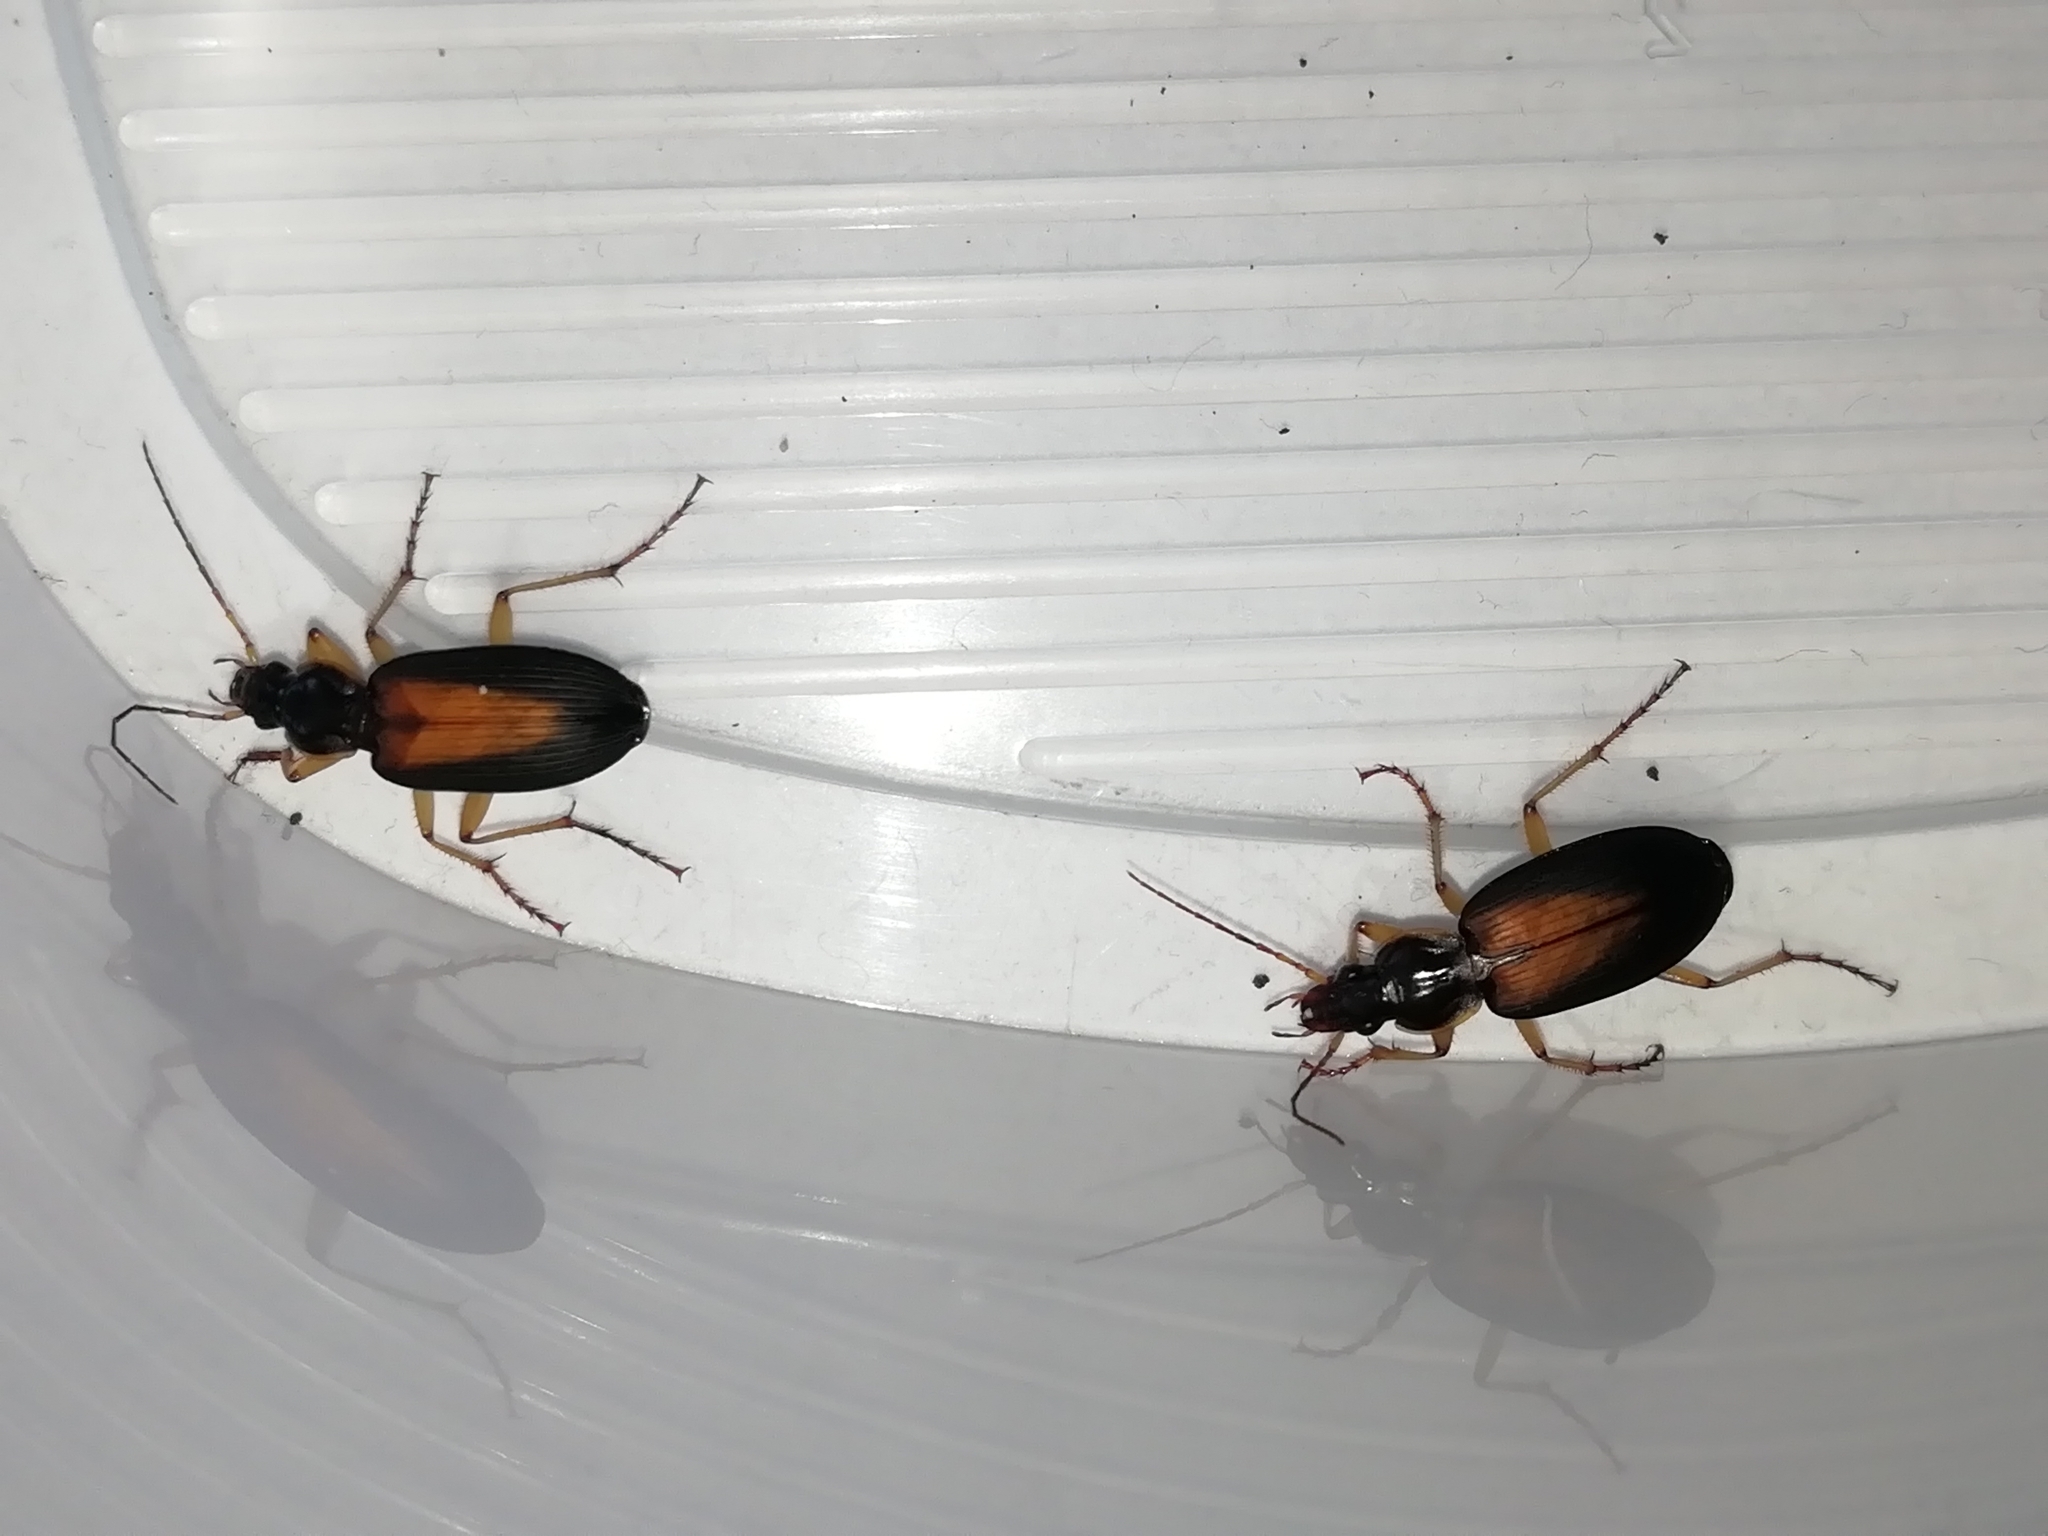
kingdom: Animalia
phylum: Arthropoda
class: Insecta
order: Coleoptera
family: Carabidae
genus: Dolichus
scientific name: Dolichus halensis
